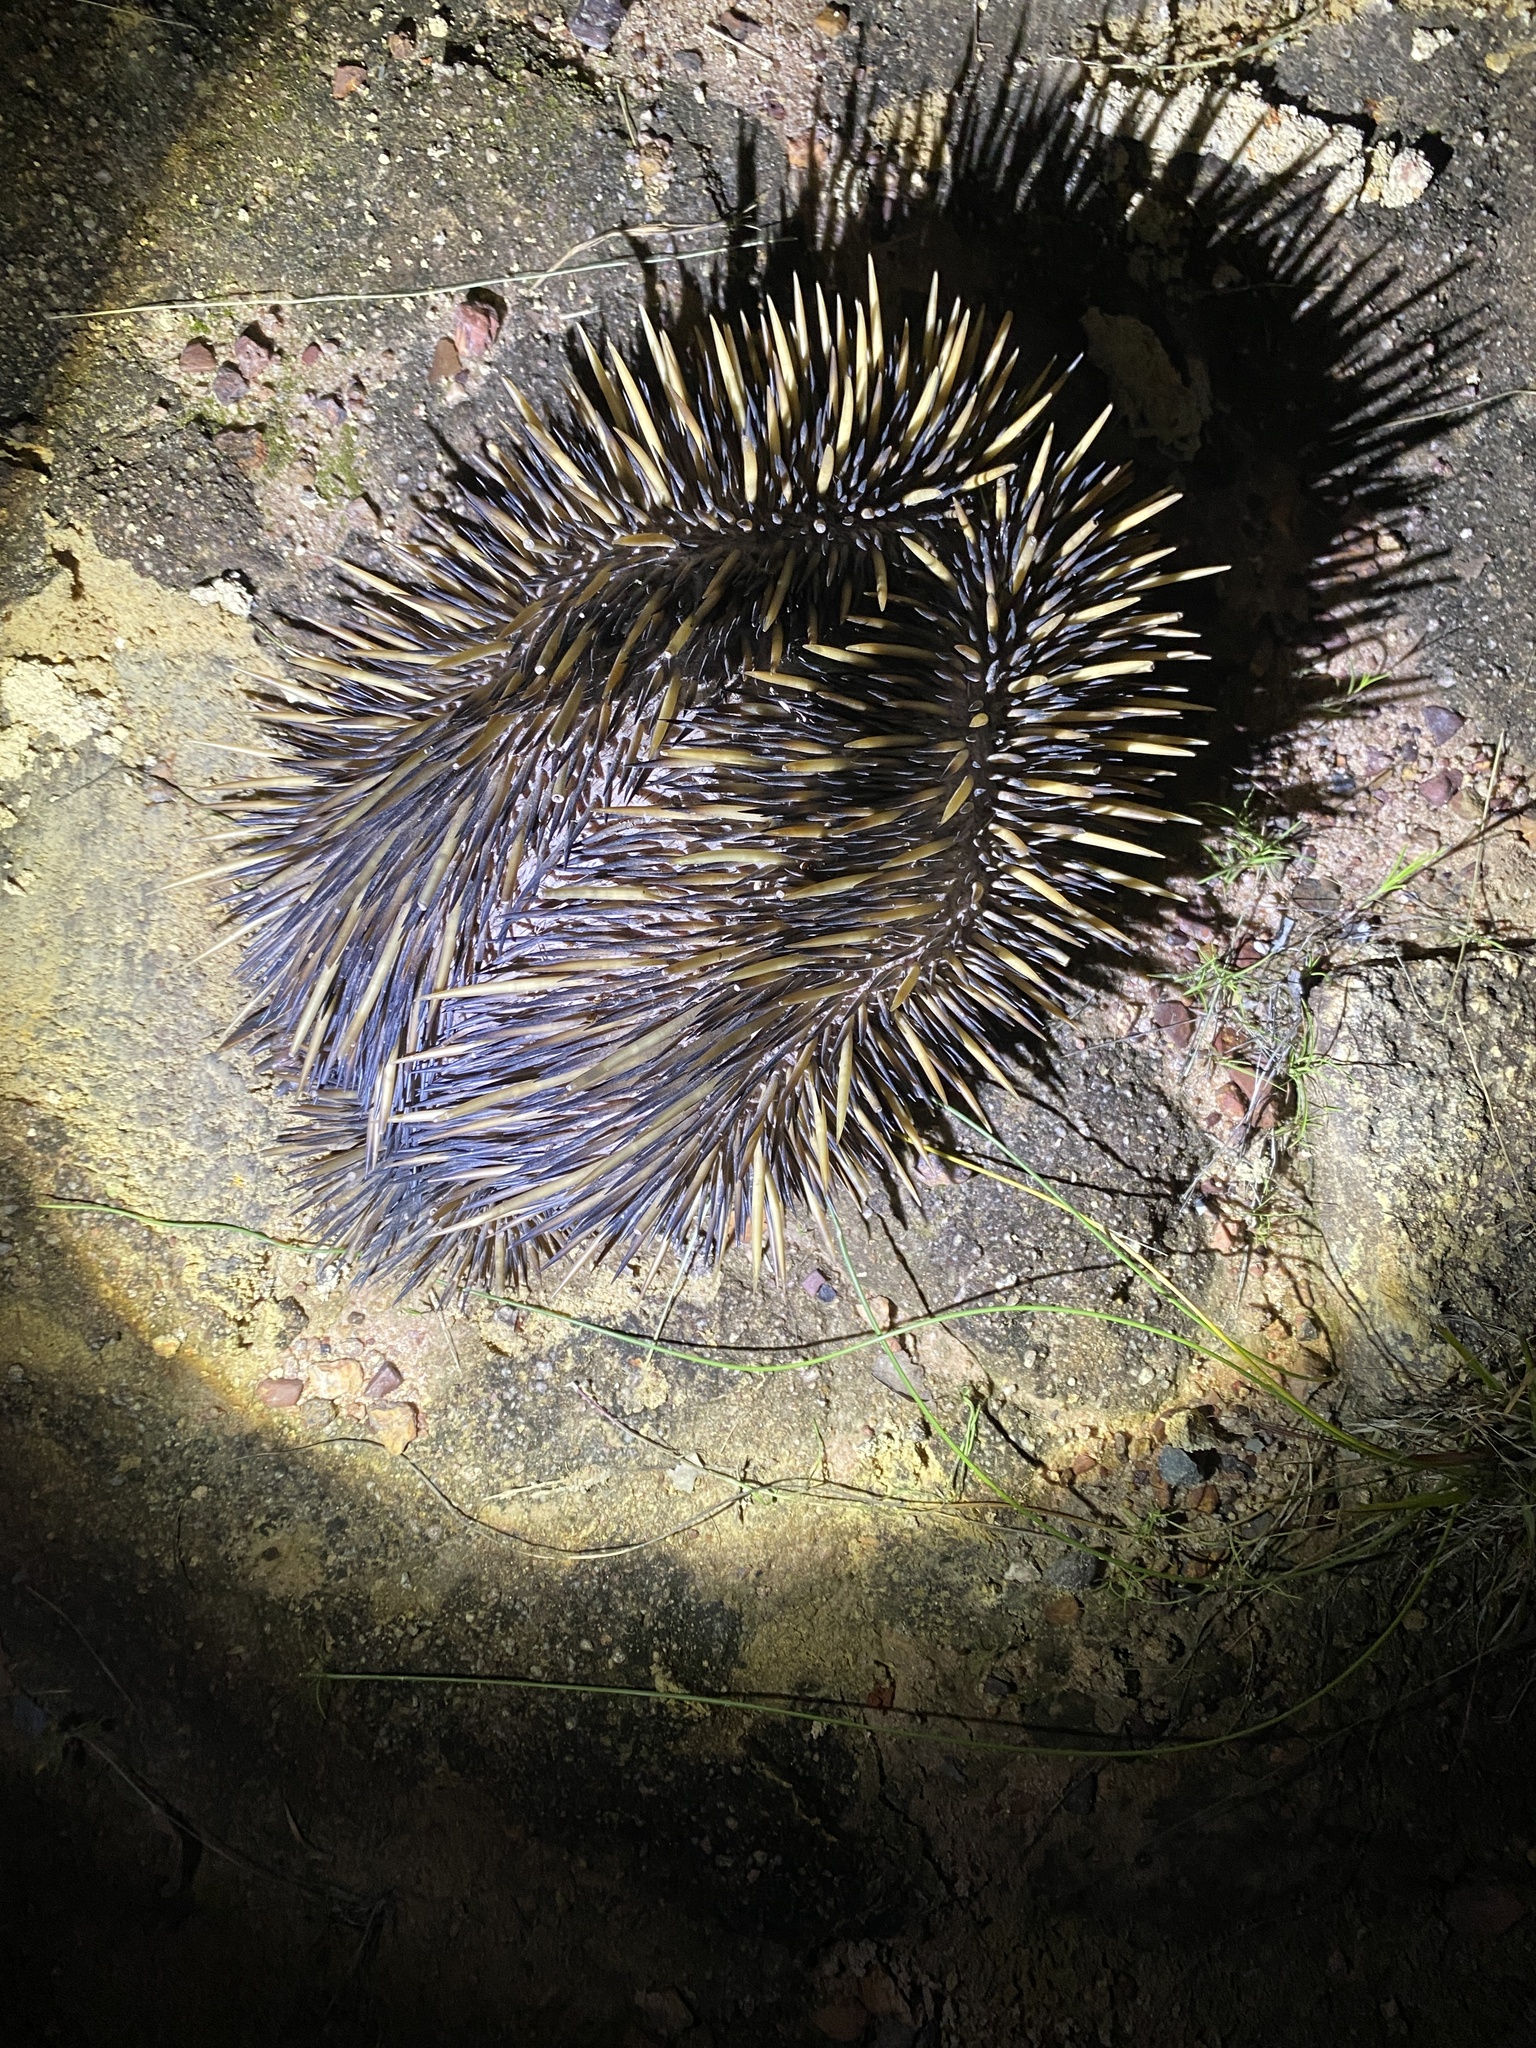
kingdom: Animalia
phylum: Chordata
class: Mammalia
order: Monotremata
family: Tachyglossidae
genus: Tachyglossus
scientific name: Tachyglossus aculeatus
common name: Short-beaked echidna
